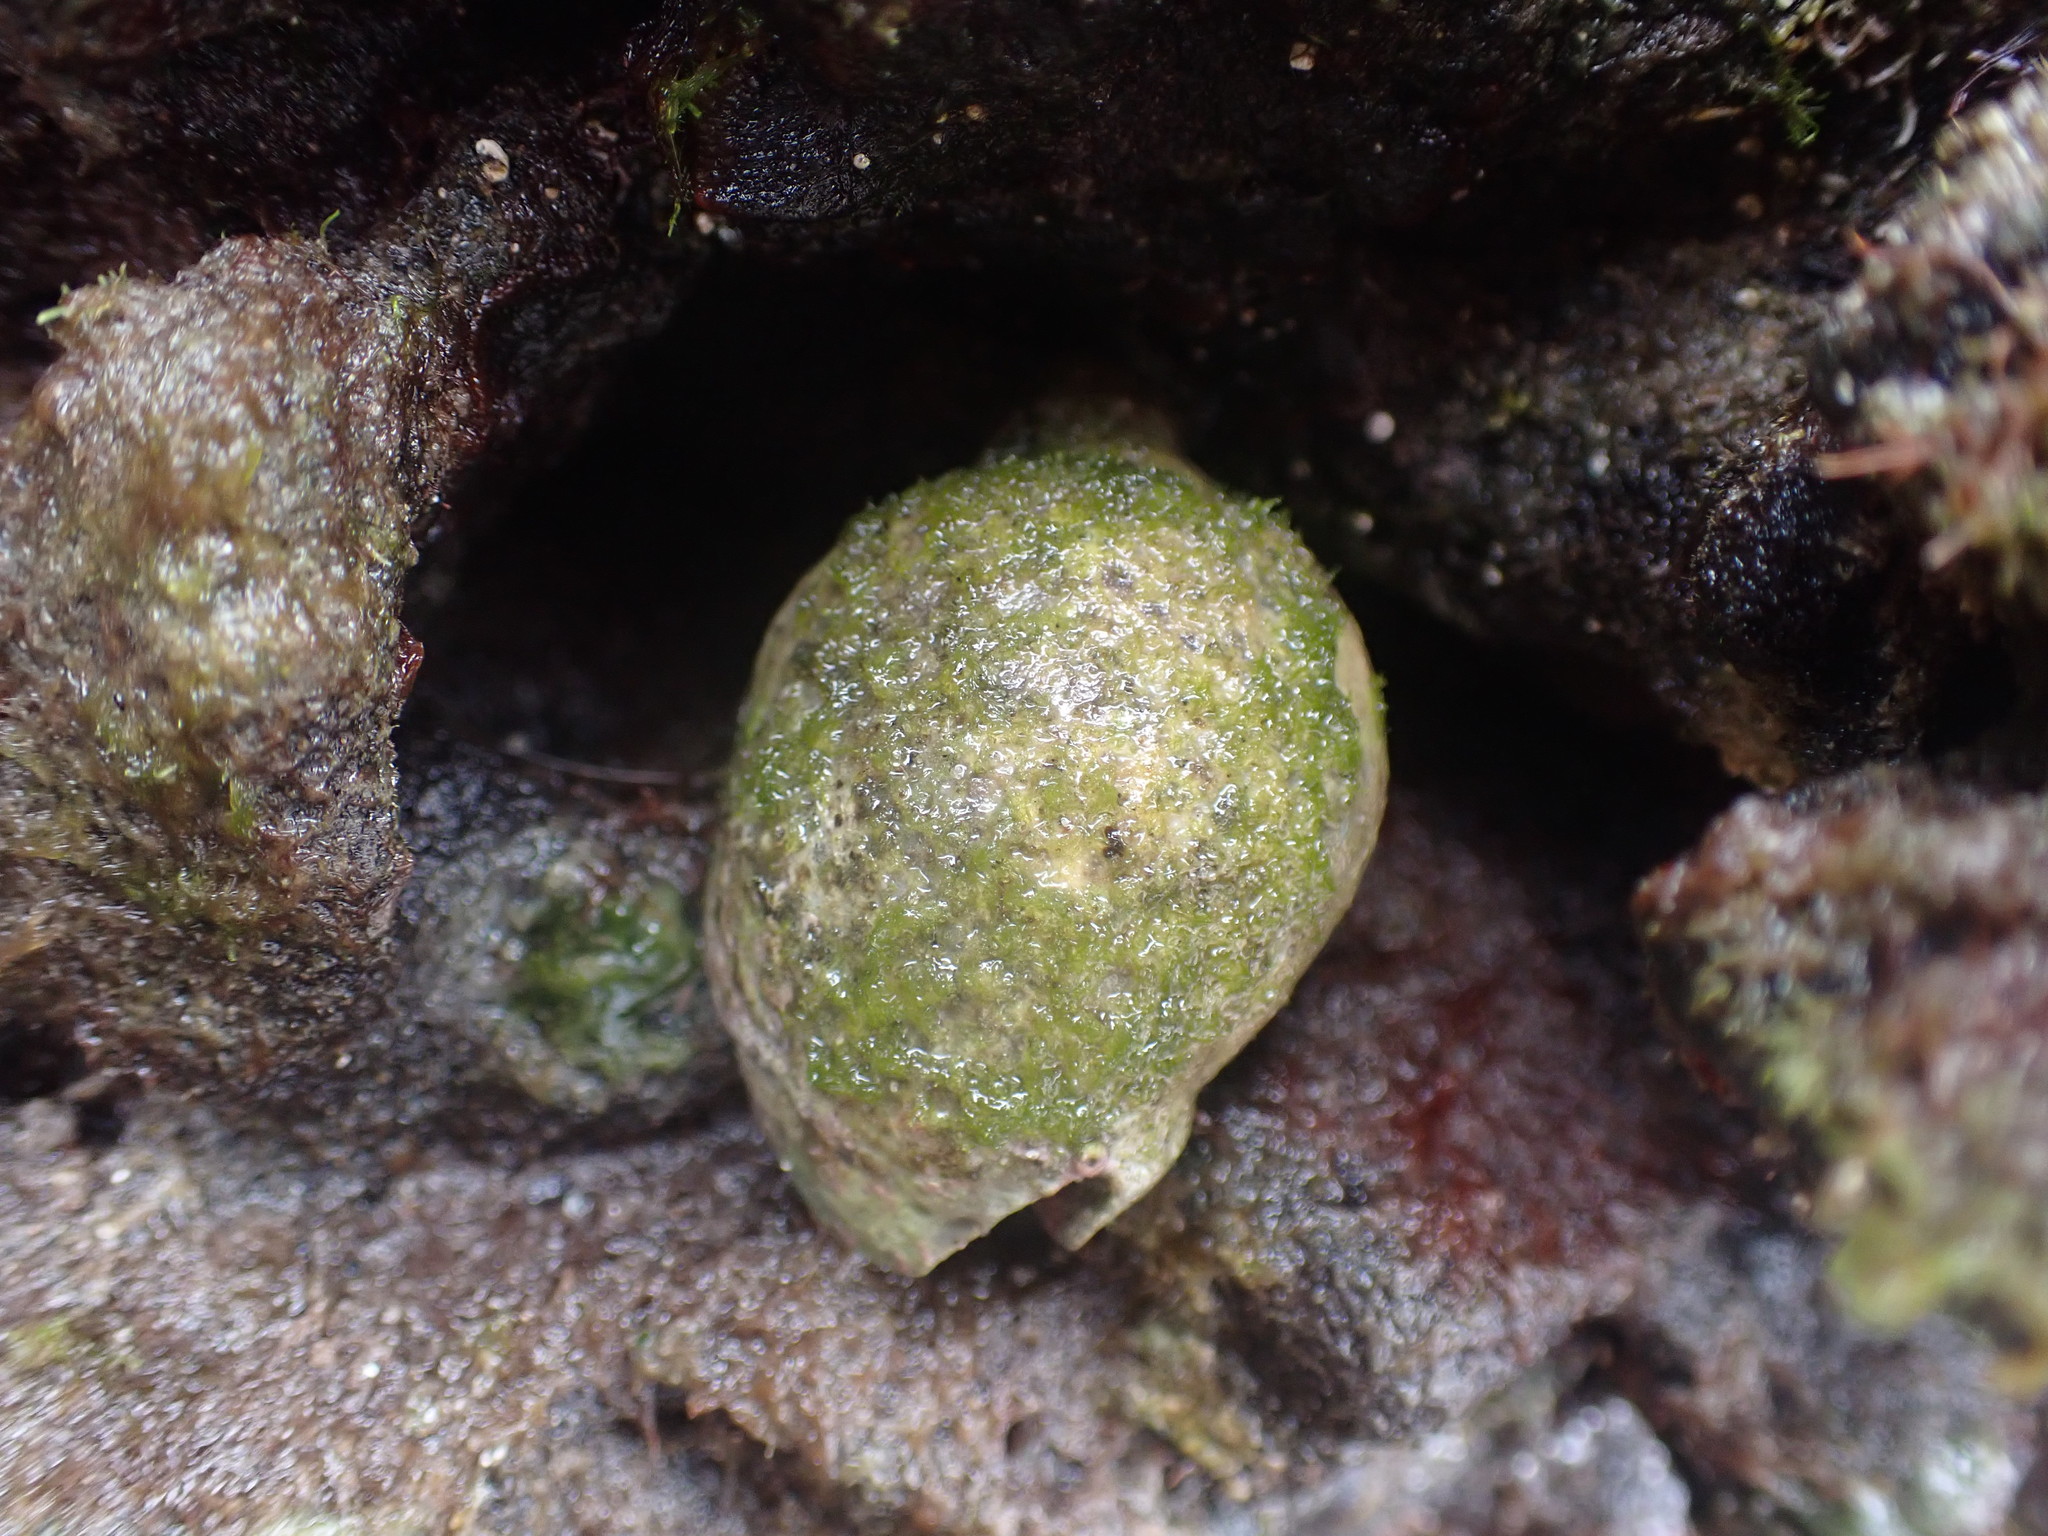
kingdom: Animalia
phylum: Mollusca
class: Gastropoda
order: Neogastropoda
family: Cominellidae
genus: Cominella
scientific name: Cominella adspersa
